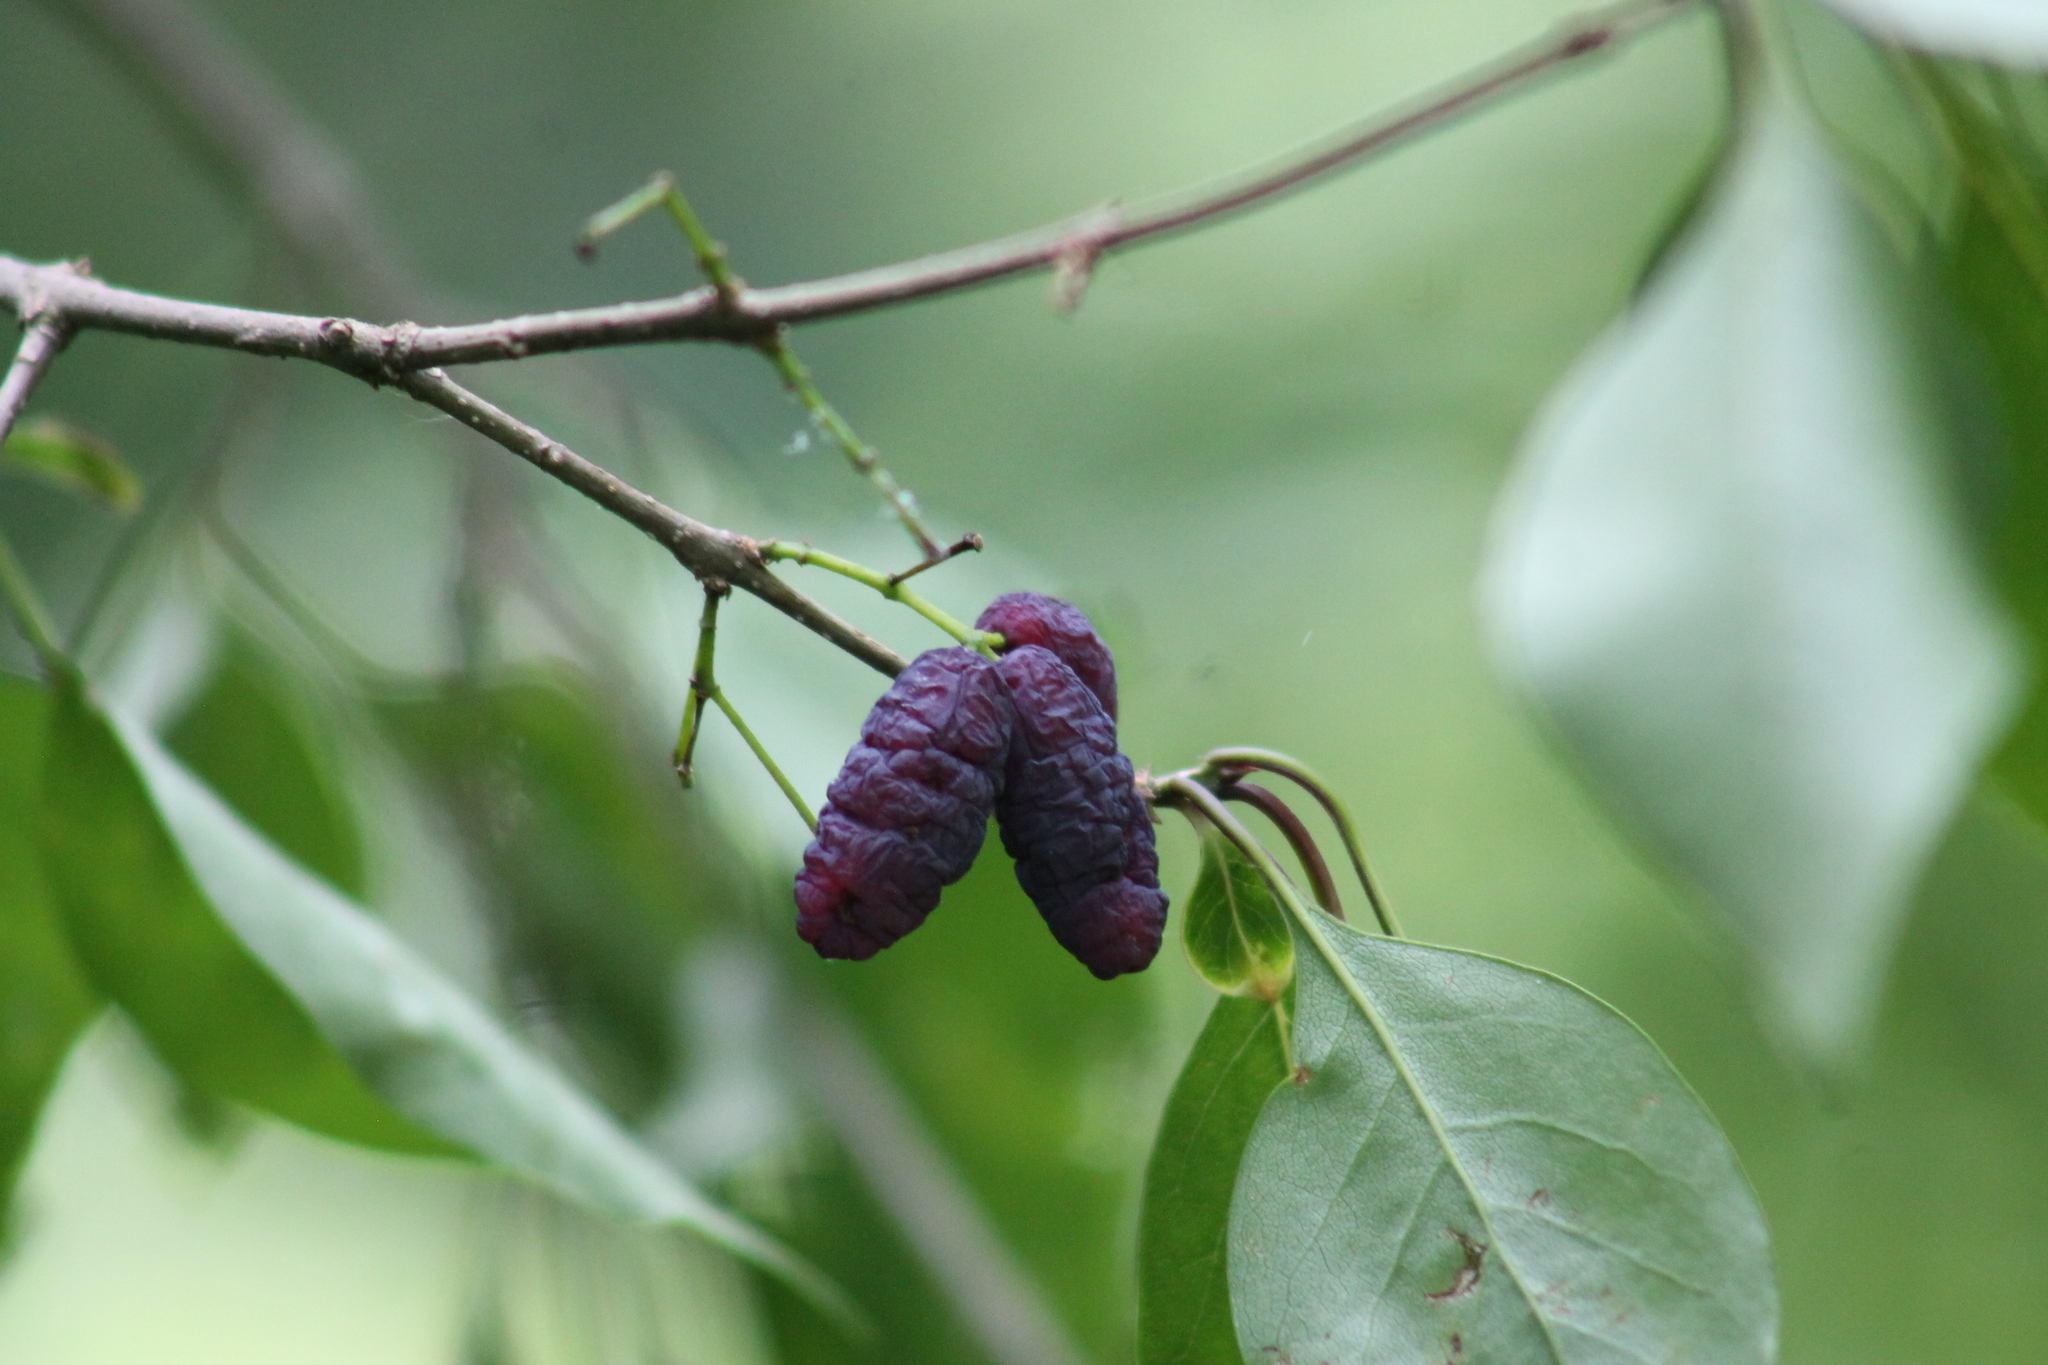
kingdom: Plantae
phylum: Tracheophyta
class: Magnoliopsida
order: Lamiales
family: Oleaceae
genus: Forestiera
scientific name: Forestiera acuminata
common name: Swamp-privet
